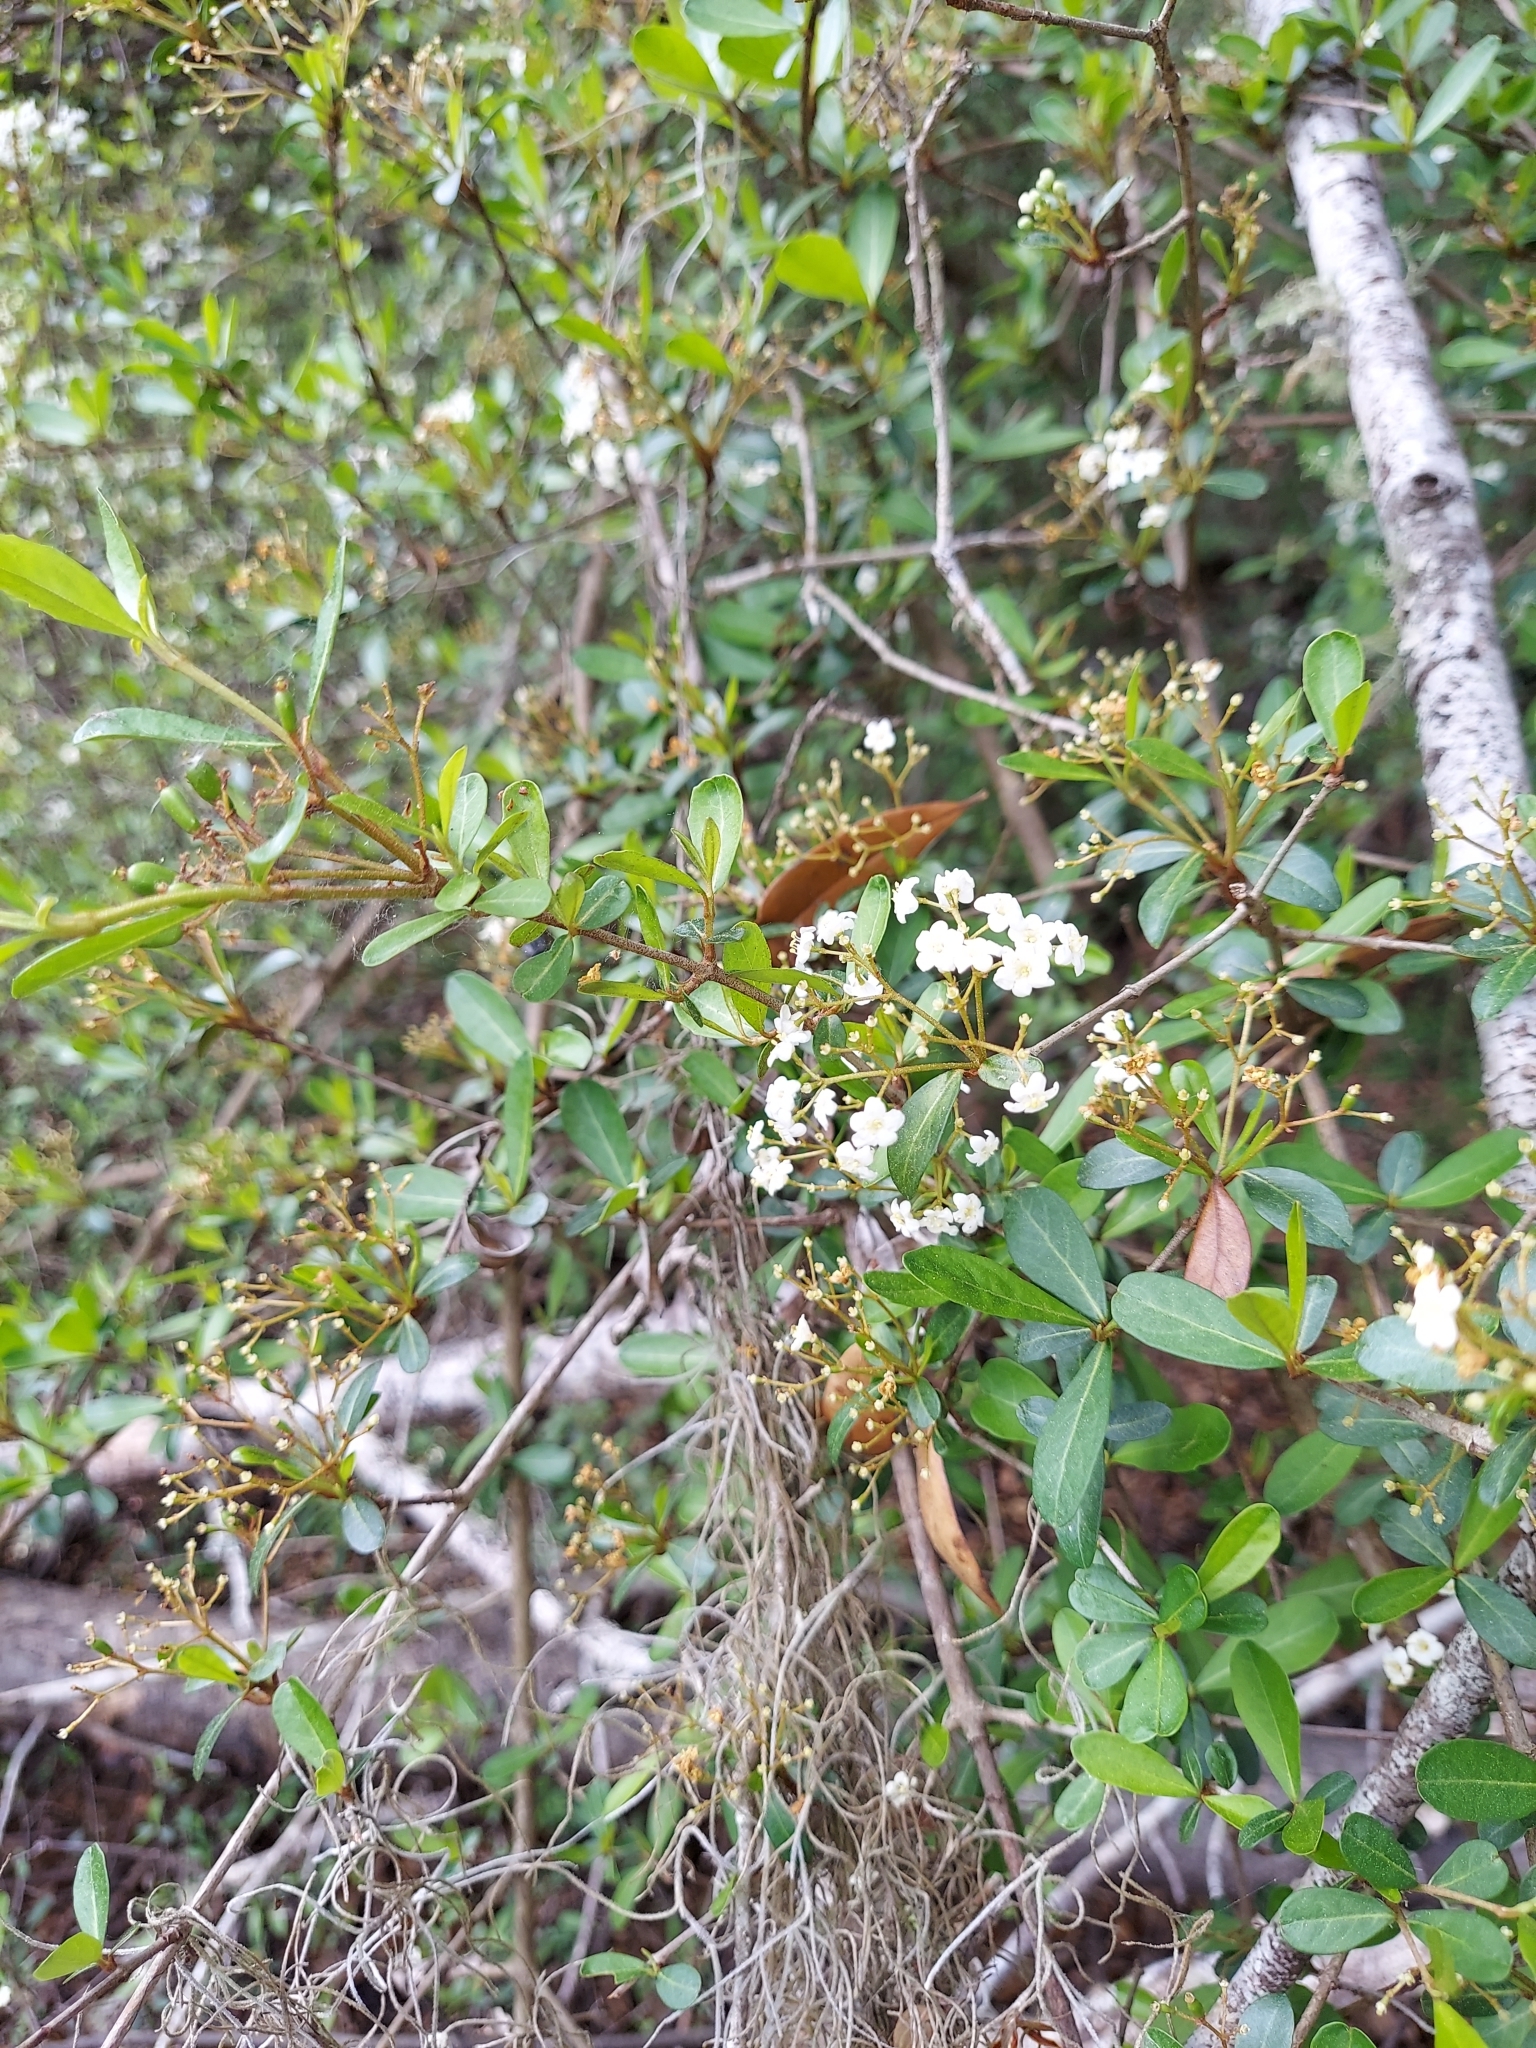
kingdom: Plantae
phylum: Tracheophyta
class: Magnoliopsida
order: Dipsacales
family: Viburnaceae
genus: Viburnum
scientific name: Viburnum obovatum
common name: Walter's viburnum
